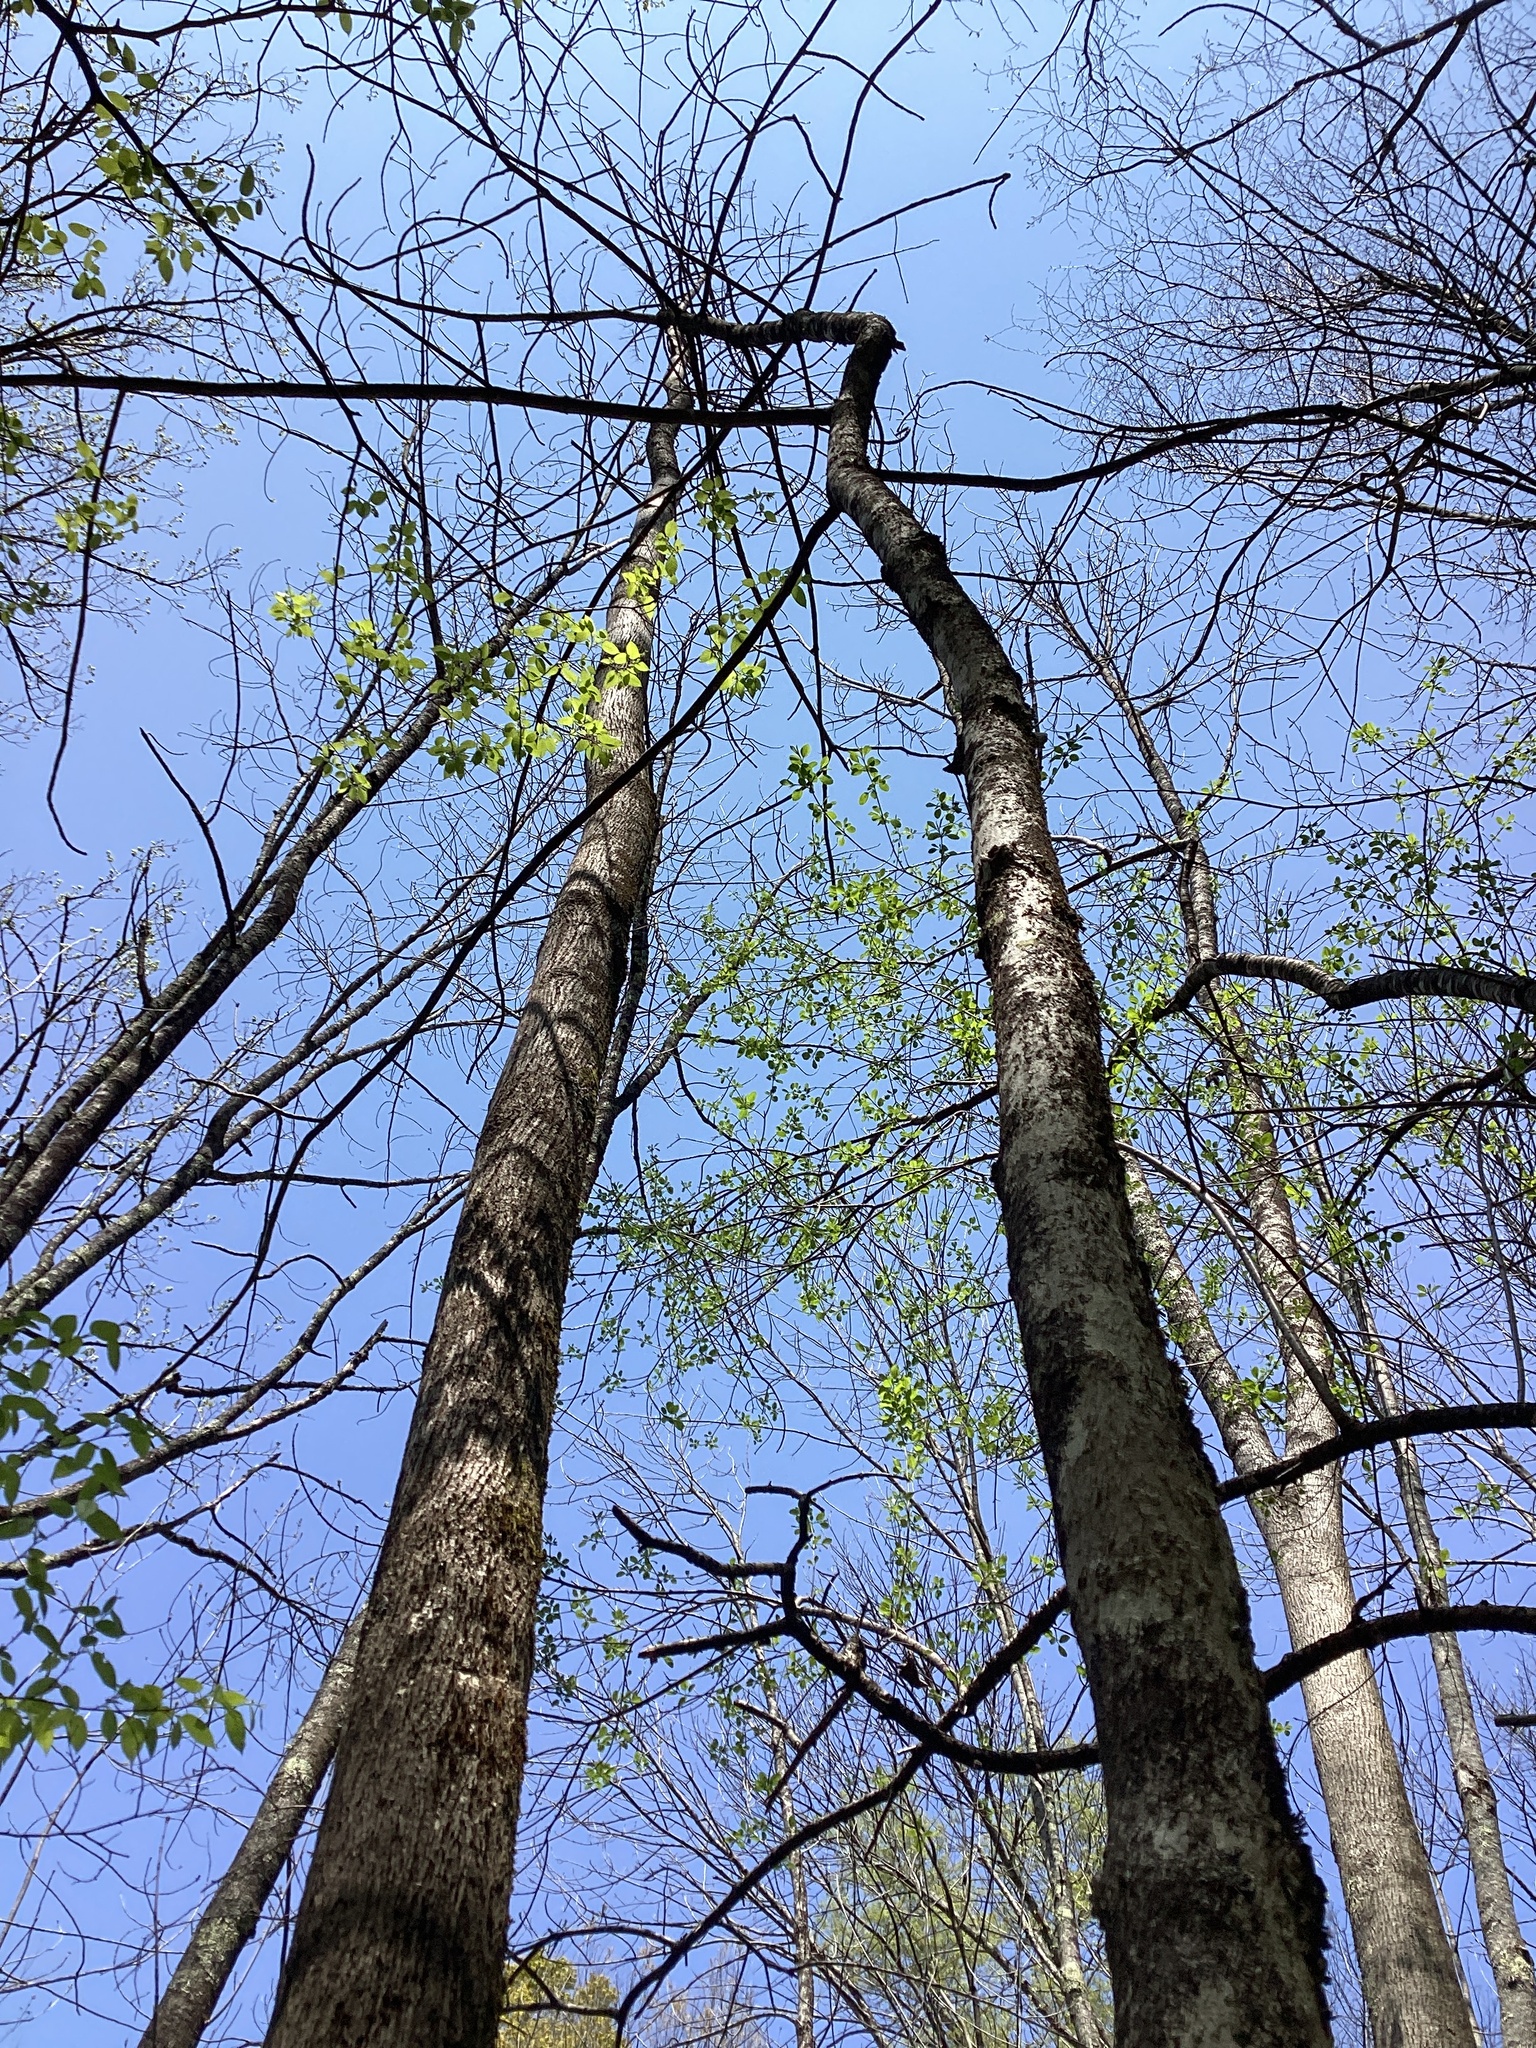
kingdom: Plantae
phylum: Tracheophyta
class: Magnoliopsida
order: Lamiales
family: Oleaceae
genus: Fraxinus
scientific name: Fraxinus nigra
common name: Black ash
